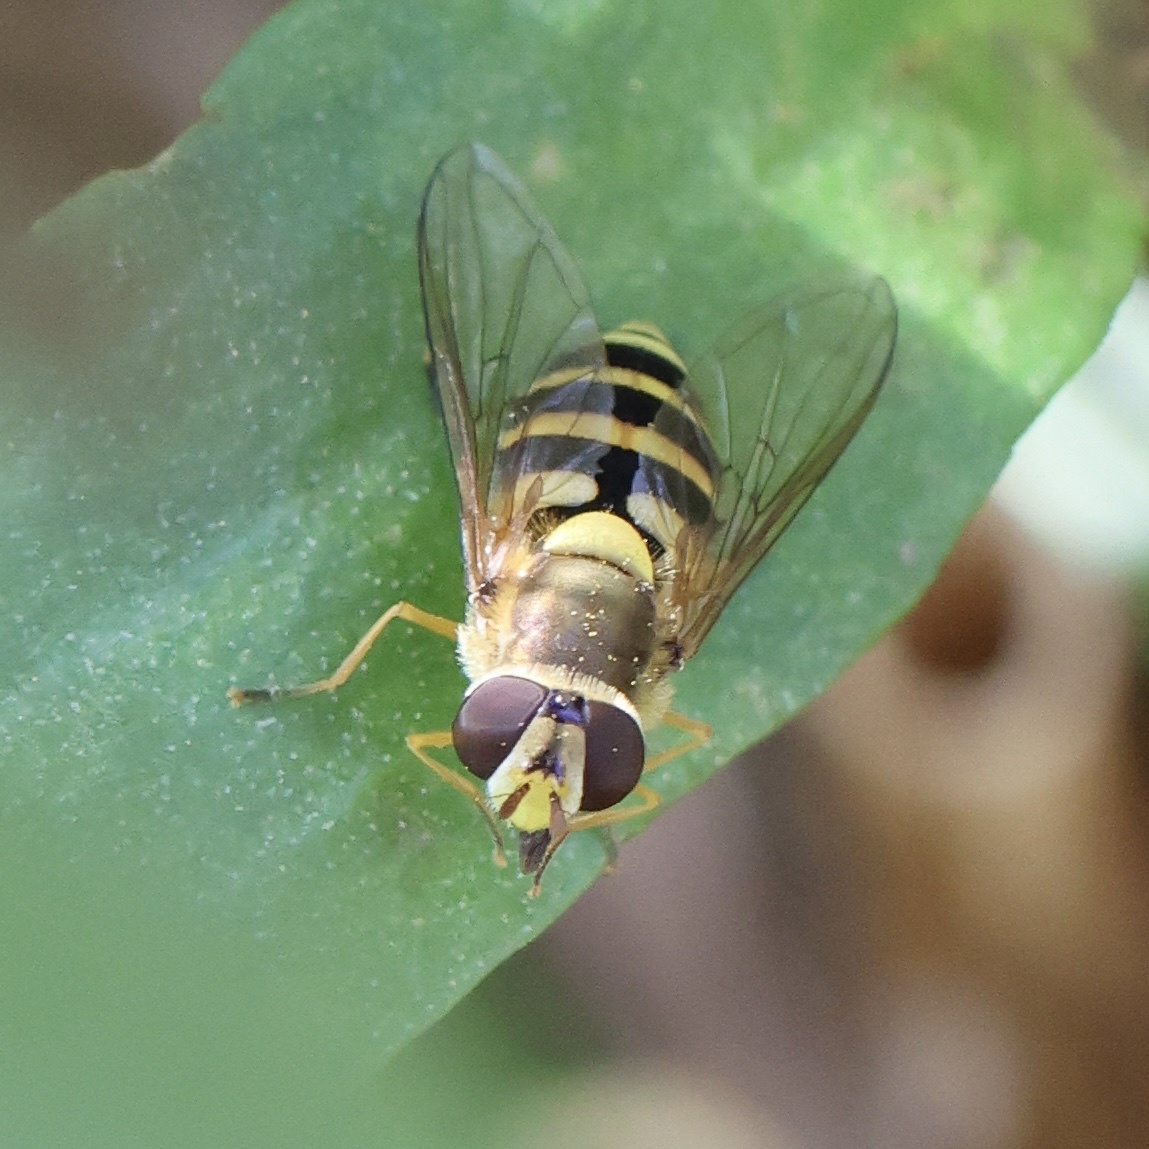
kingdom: Animalia
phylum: Arthropoda
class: Insecta
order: Diptera
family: Syrphidae
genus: Syrphus
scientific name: Syrphus
